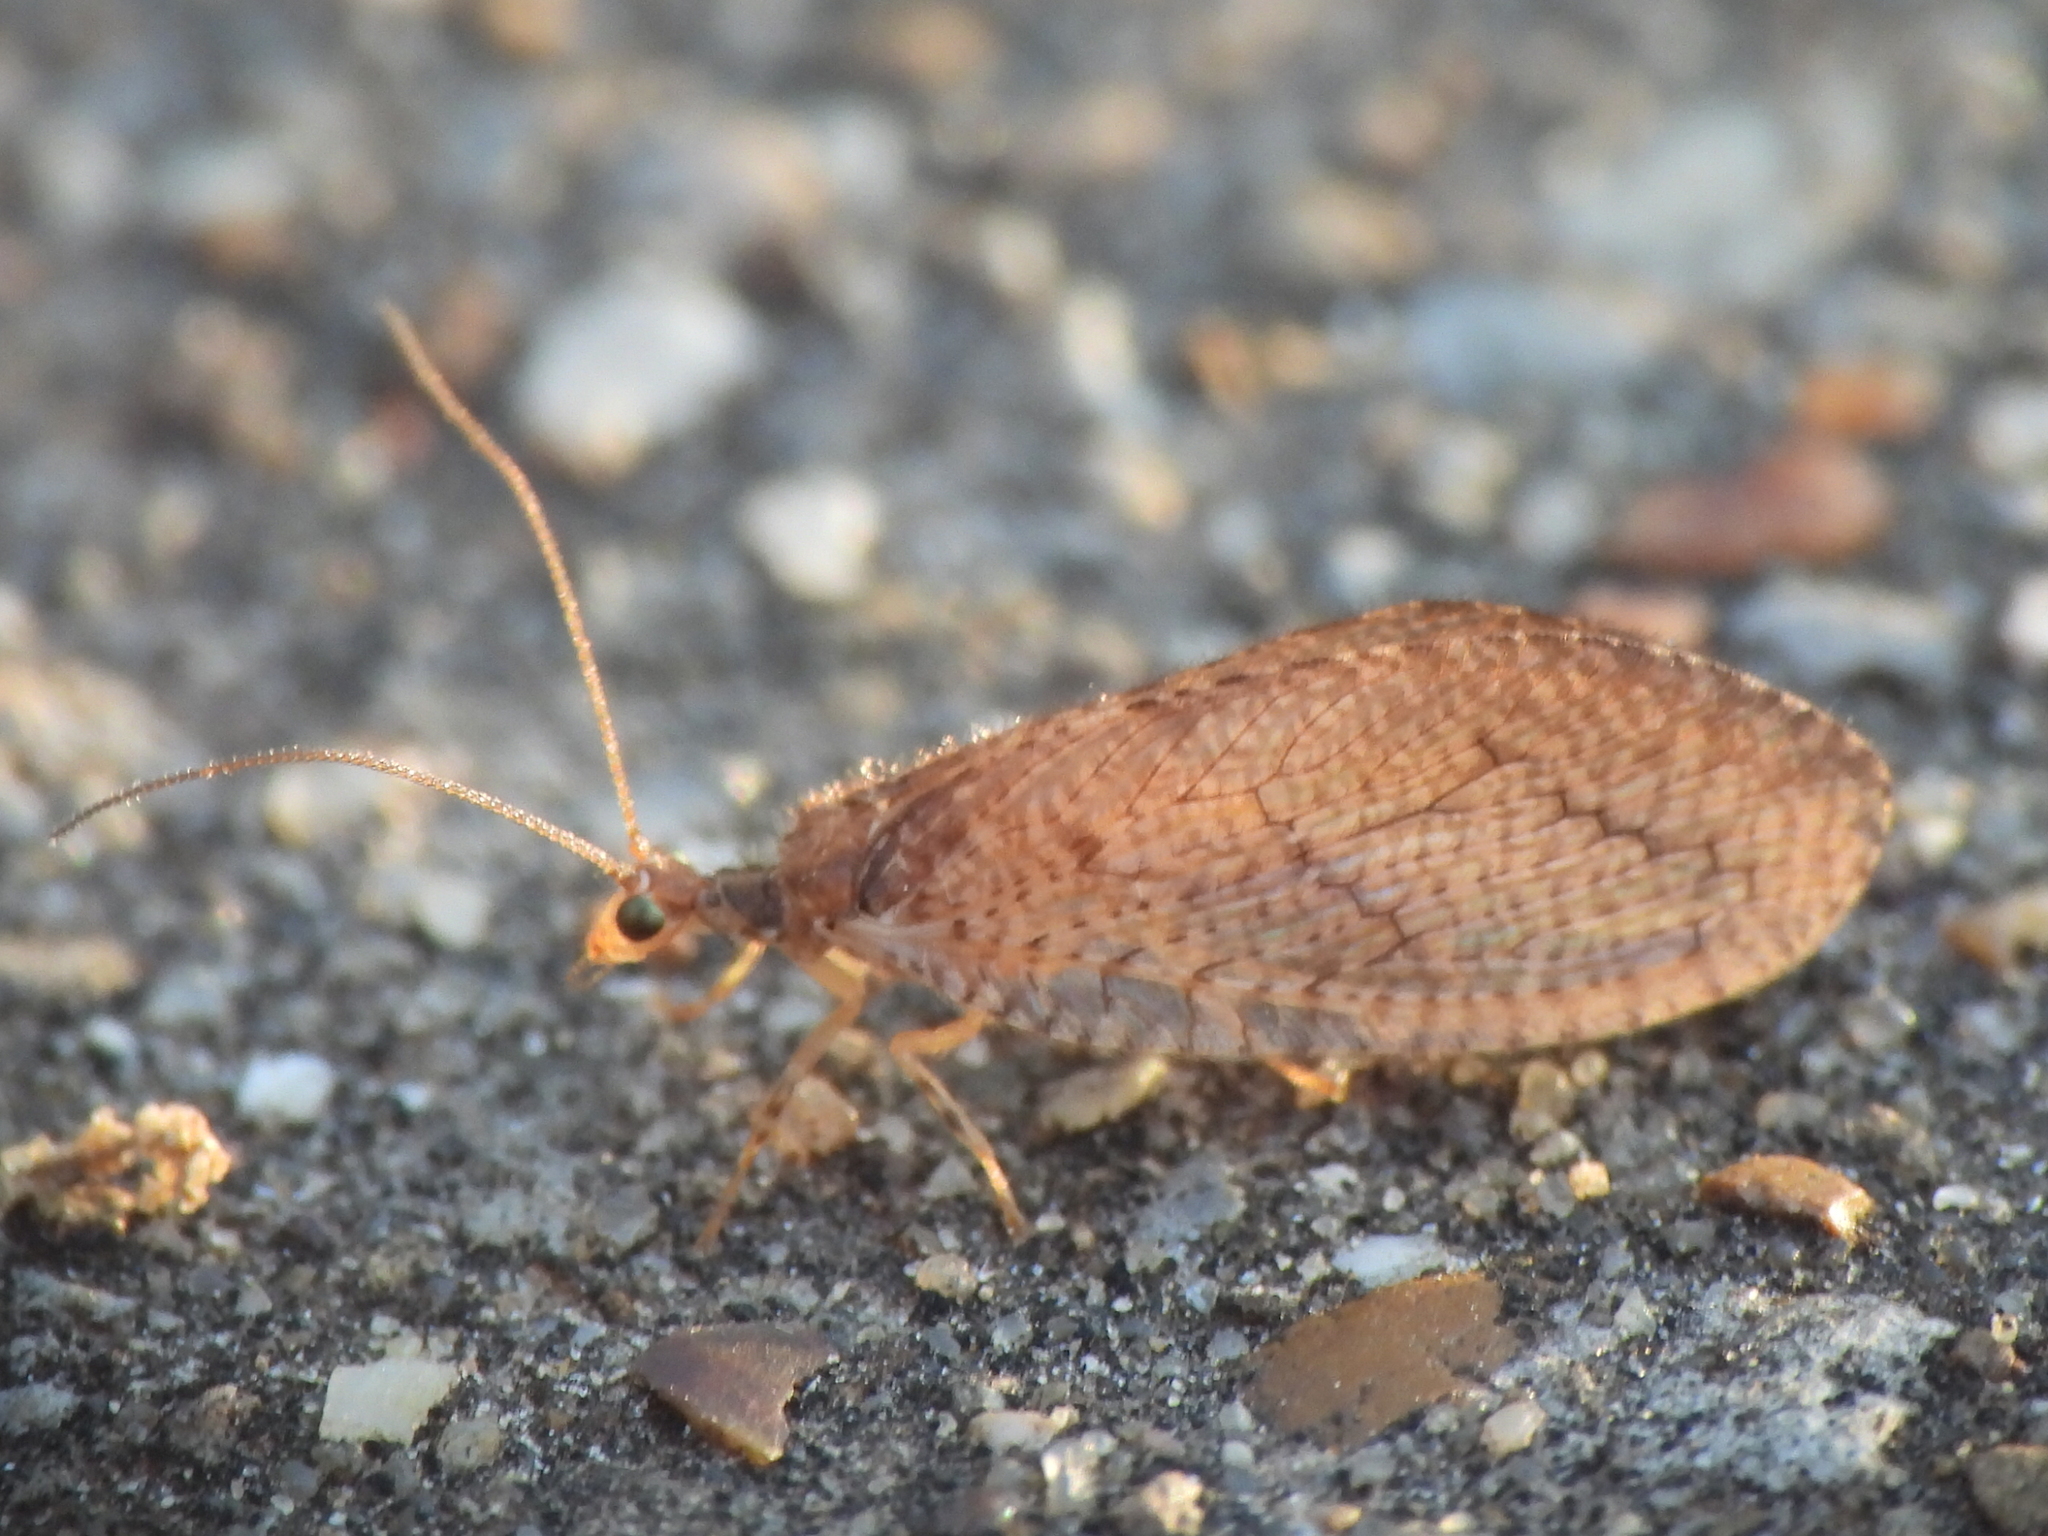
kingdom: Animalia
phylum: Arthropoda
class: Insecta
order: Neuroptera
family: Hemerobiidae
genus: Micromus
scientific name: Micromus posticus
